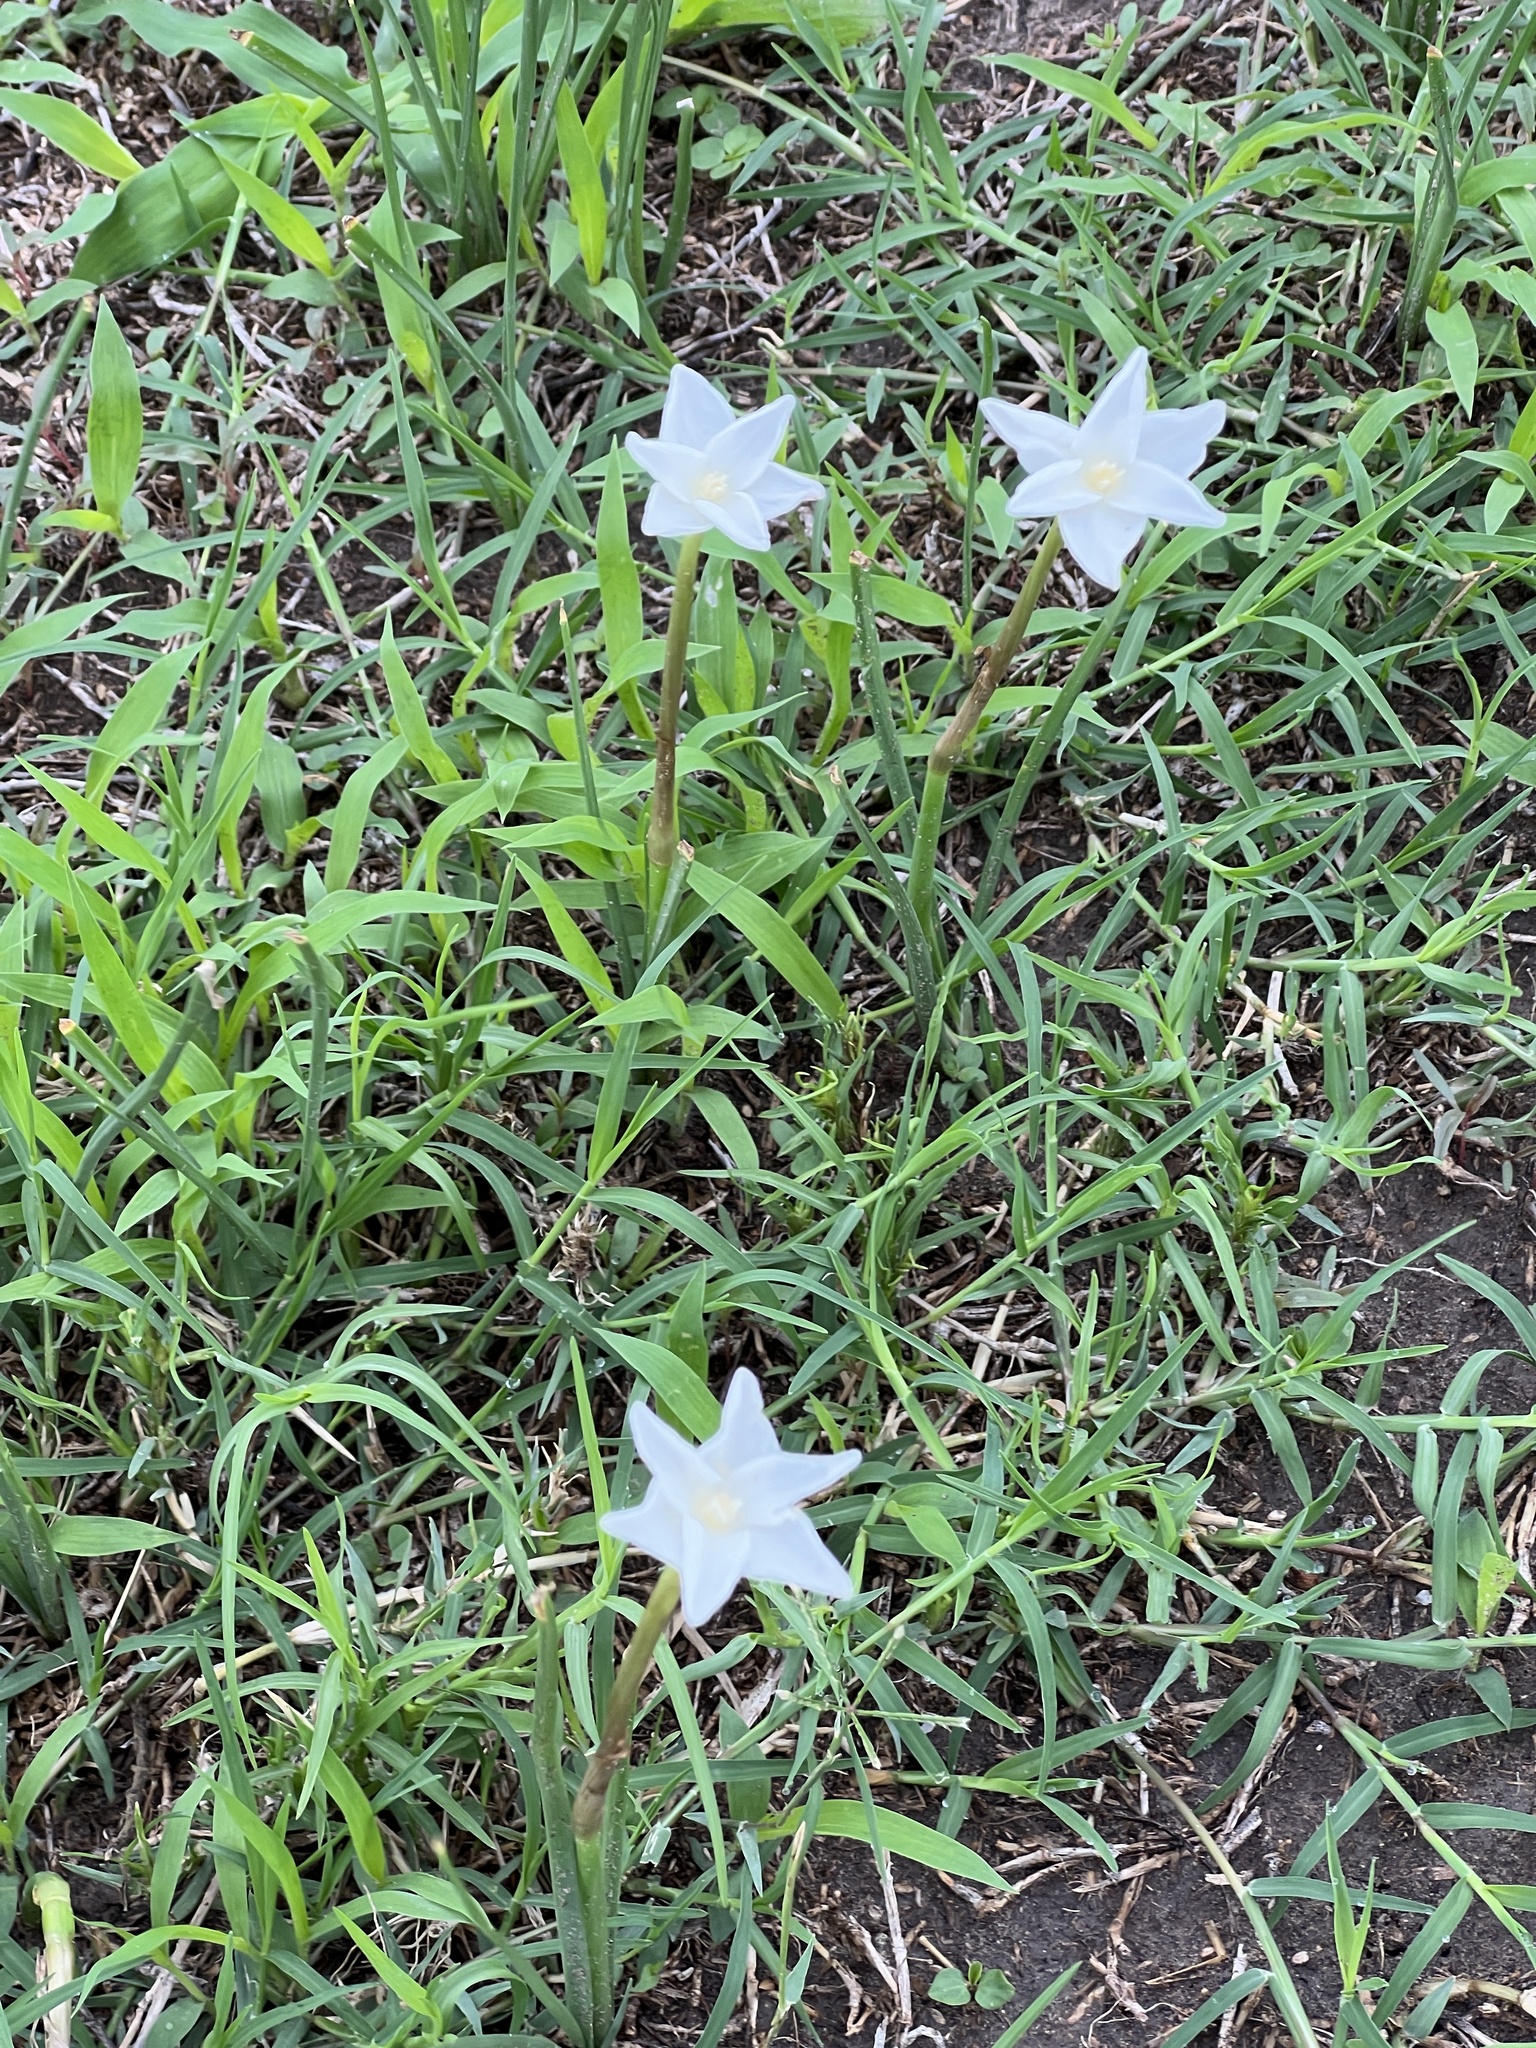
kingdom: Plantae
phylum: Tracheophyta
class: Liliopsida
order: Asparagales
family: Amaryllidaceae
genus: Zephyranthes
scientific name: Zephyranthes chlorosolen
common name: Evening rain-lily
